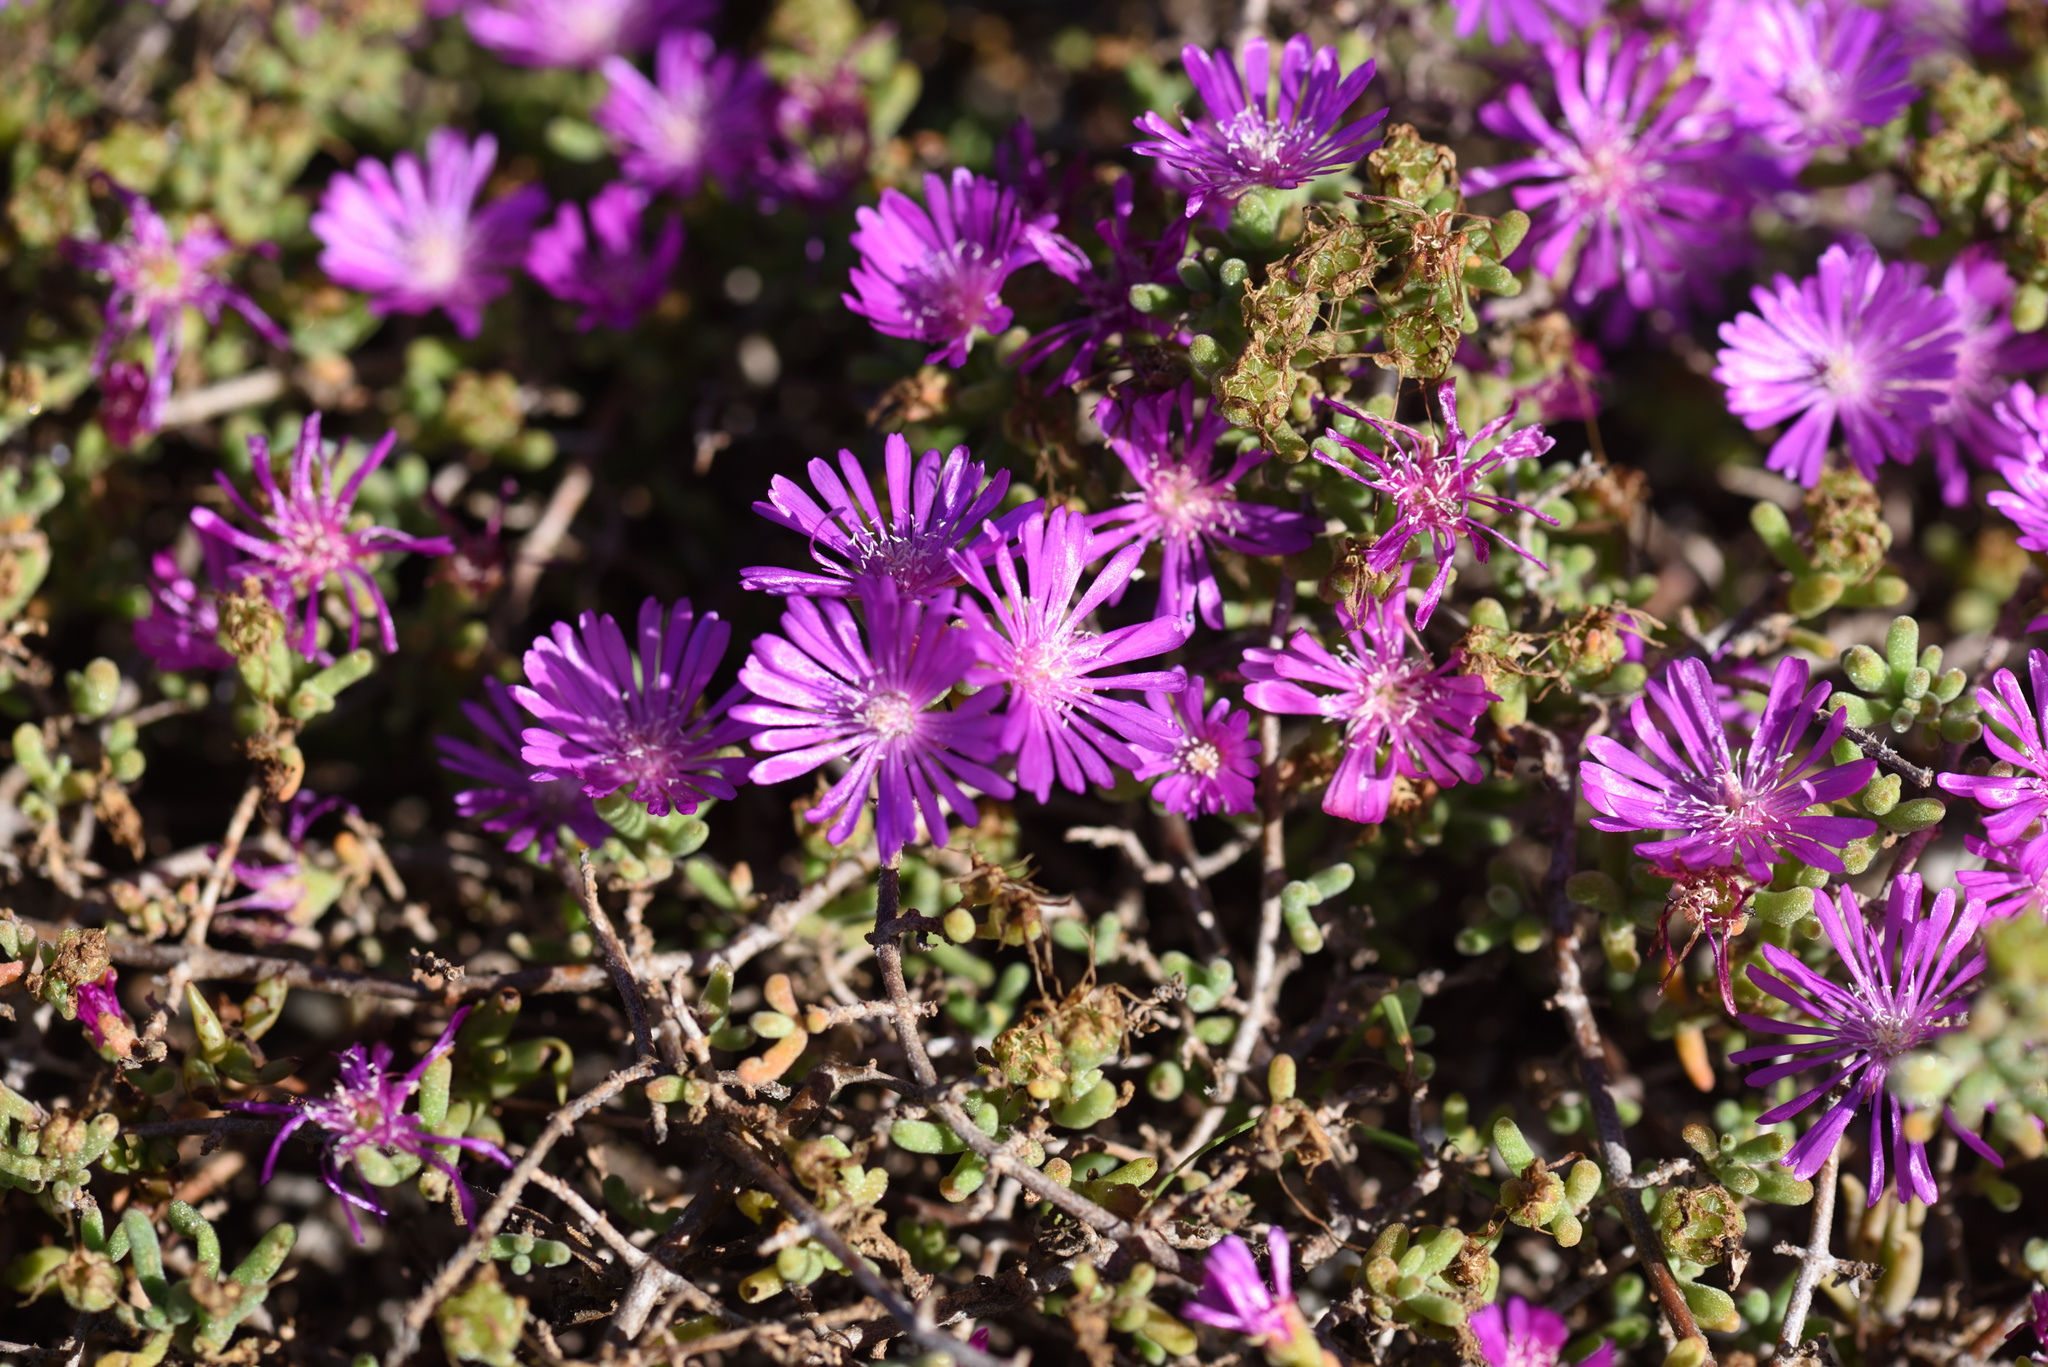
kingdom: Plantae
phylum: Tracheophyta
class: Magnoliopsida
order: Caryophyllales
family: Aizoaceae
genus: Drosanthemum
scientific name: Drosanthemum floribundum
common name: Pale dewplant
